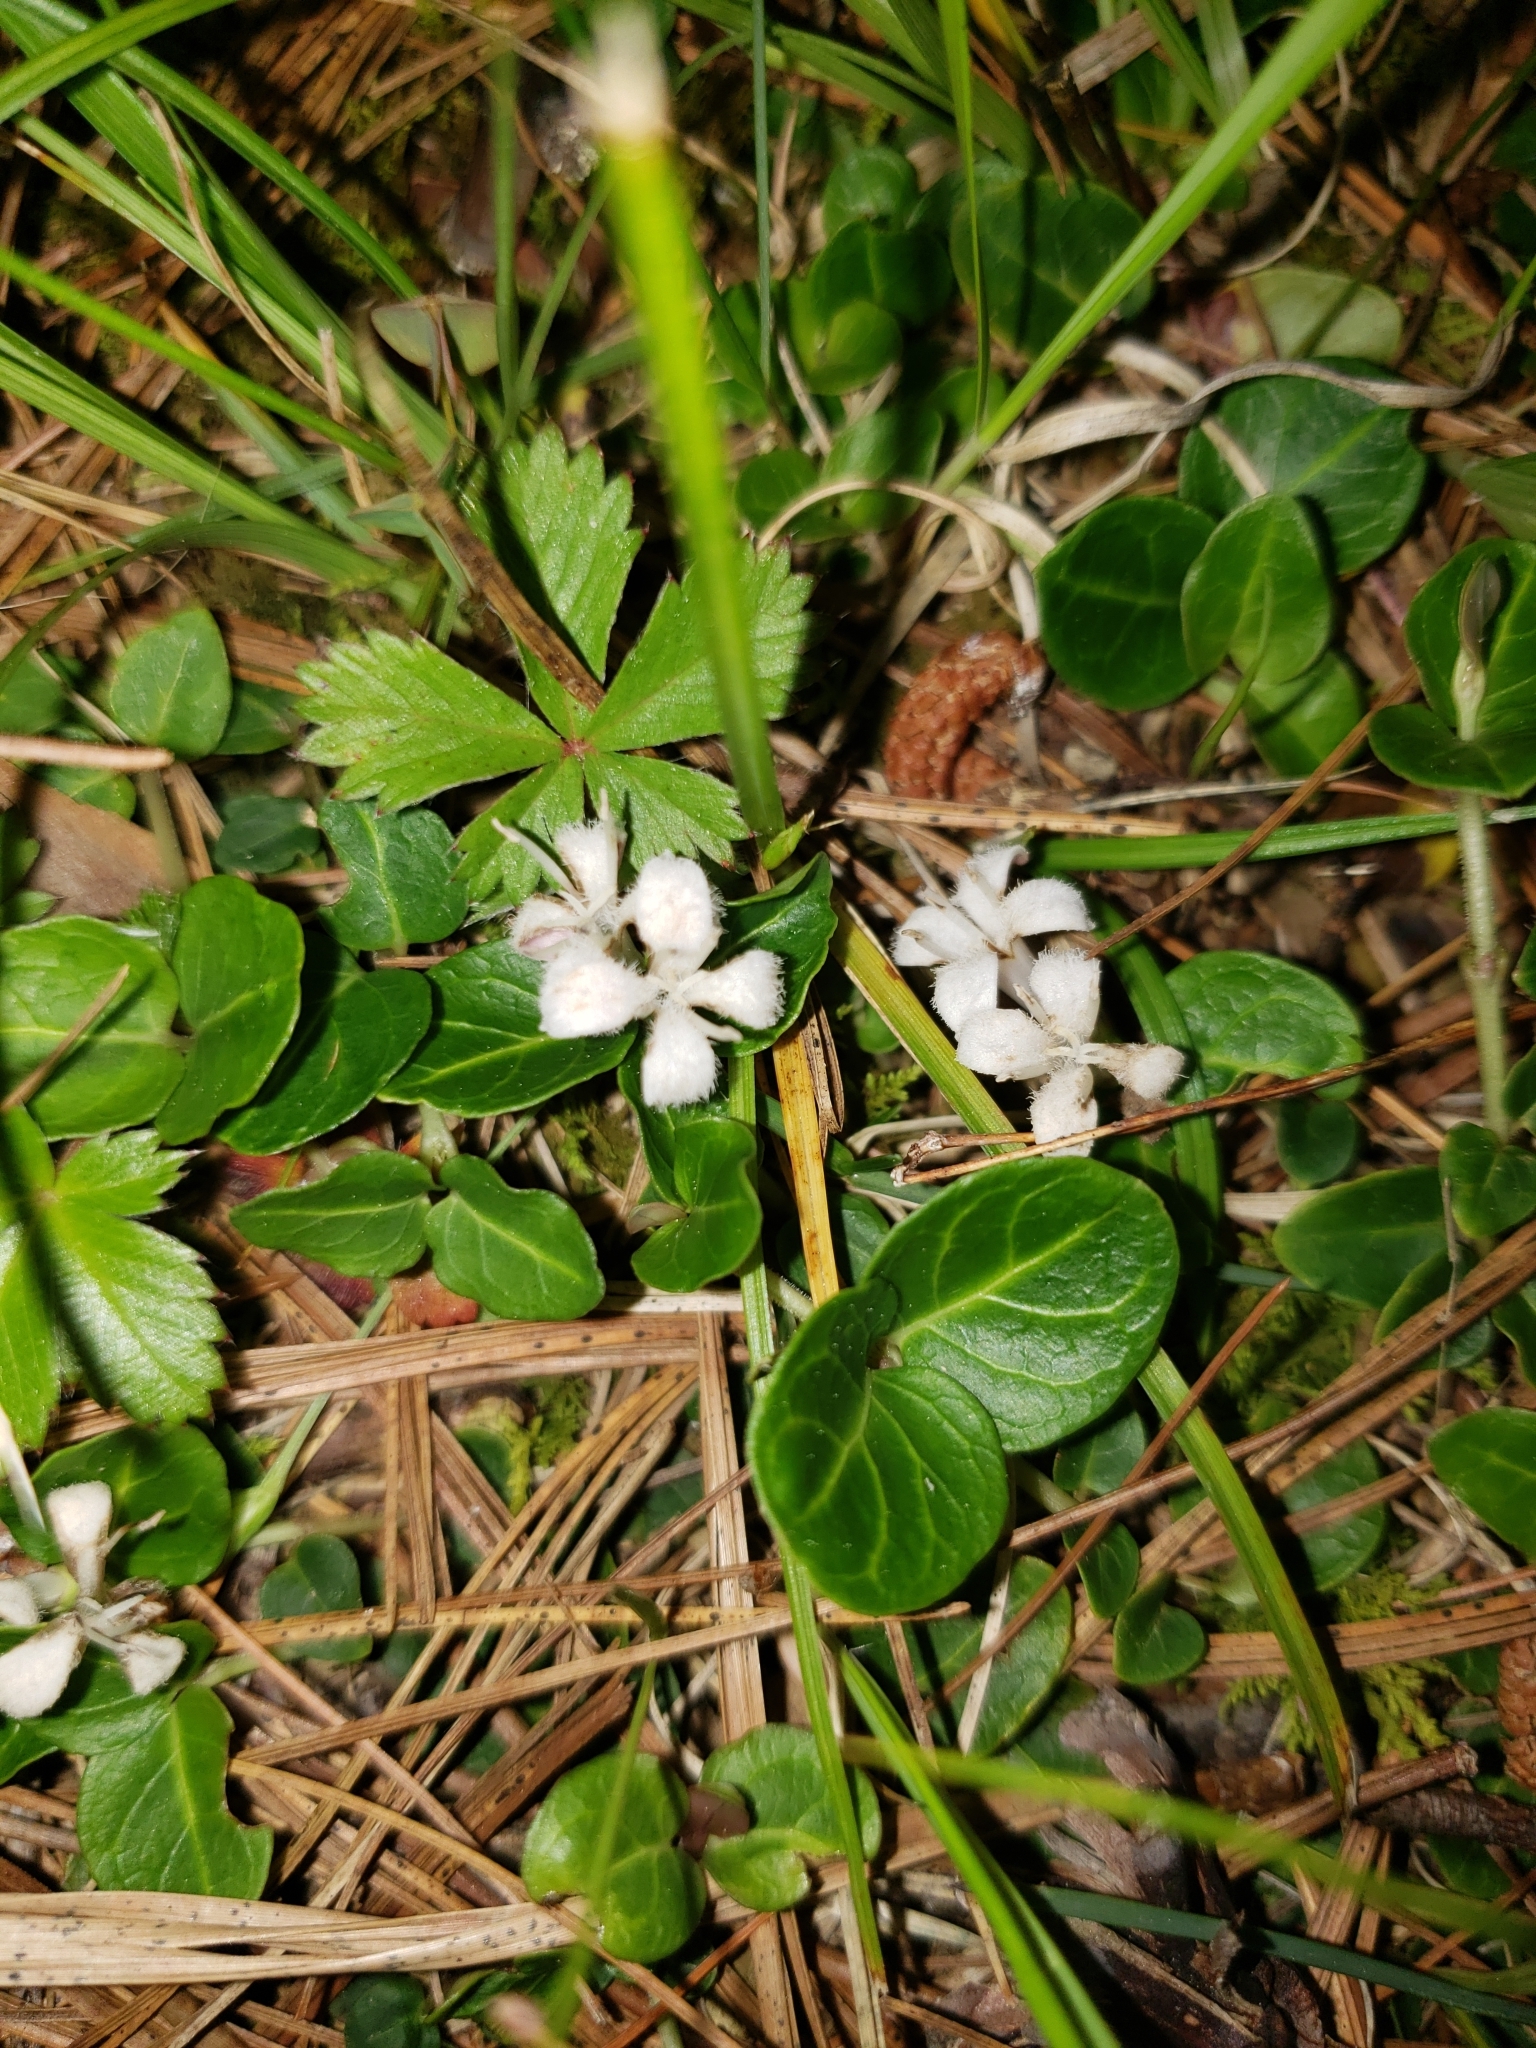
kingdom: Plantae
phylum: Tracheophyta
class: Magnoliopsida
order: Gentianales
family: Rubiaceae
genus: Mitchella
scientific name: Mitchella repens
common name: Partridge-berry
